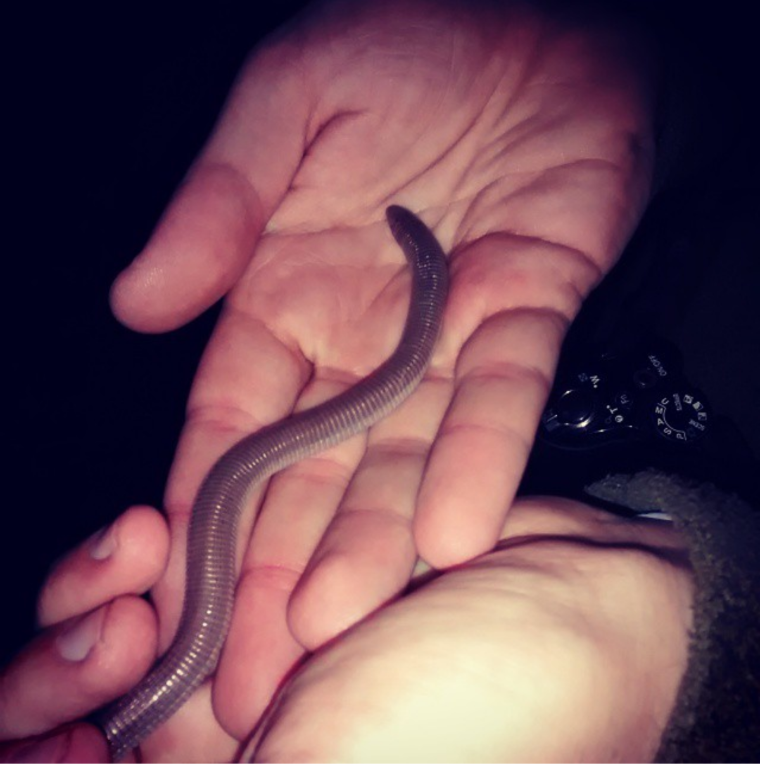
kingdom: Animalia
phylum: Chordata
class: Squamata
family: Amphisbaenidae
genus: Amphisbaena
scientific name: Amphisbaena darwinii
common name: Darwin's ringed worm lizard
